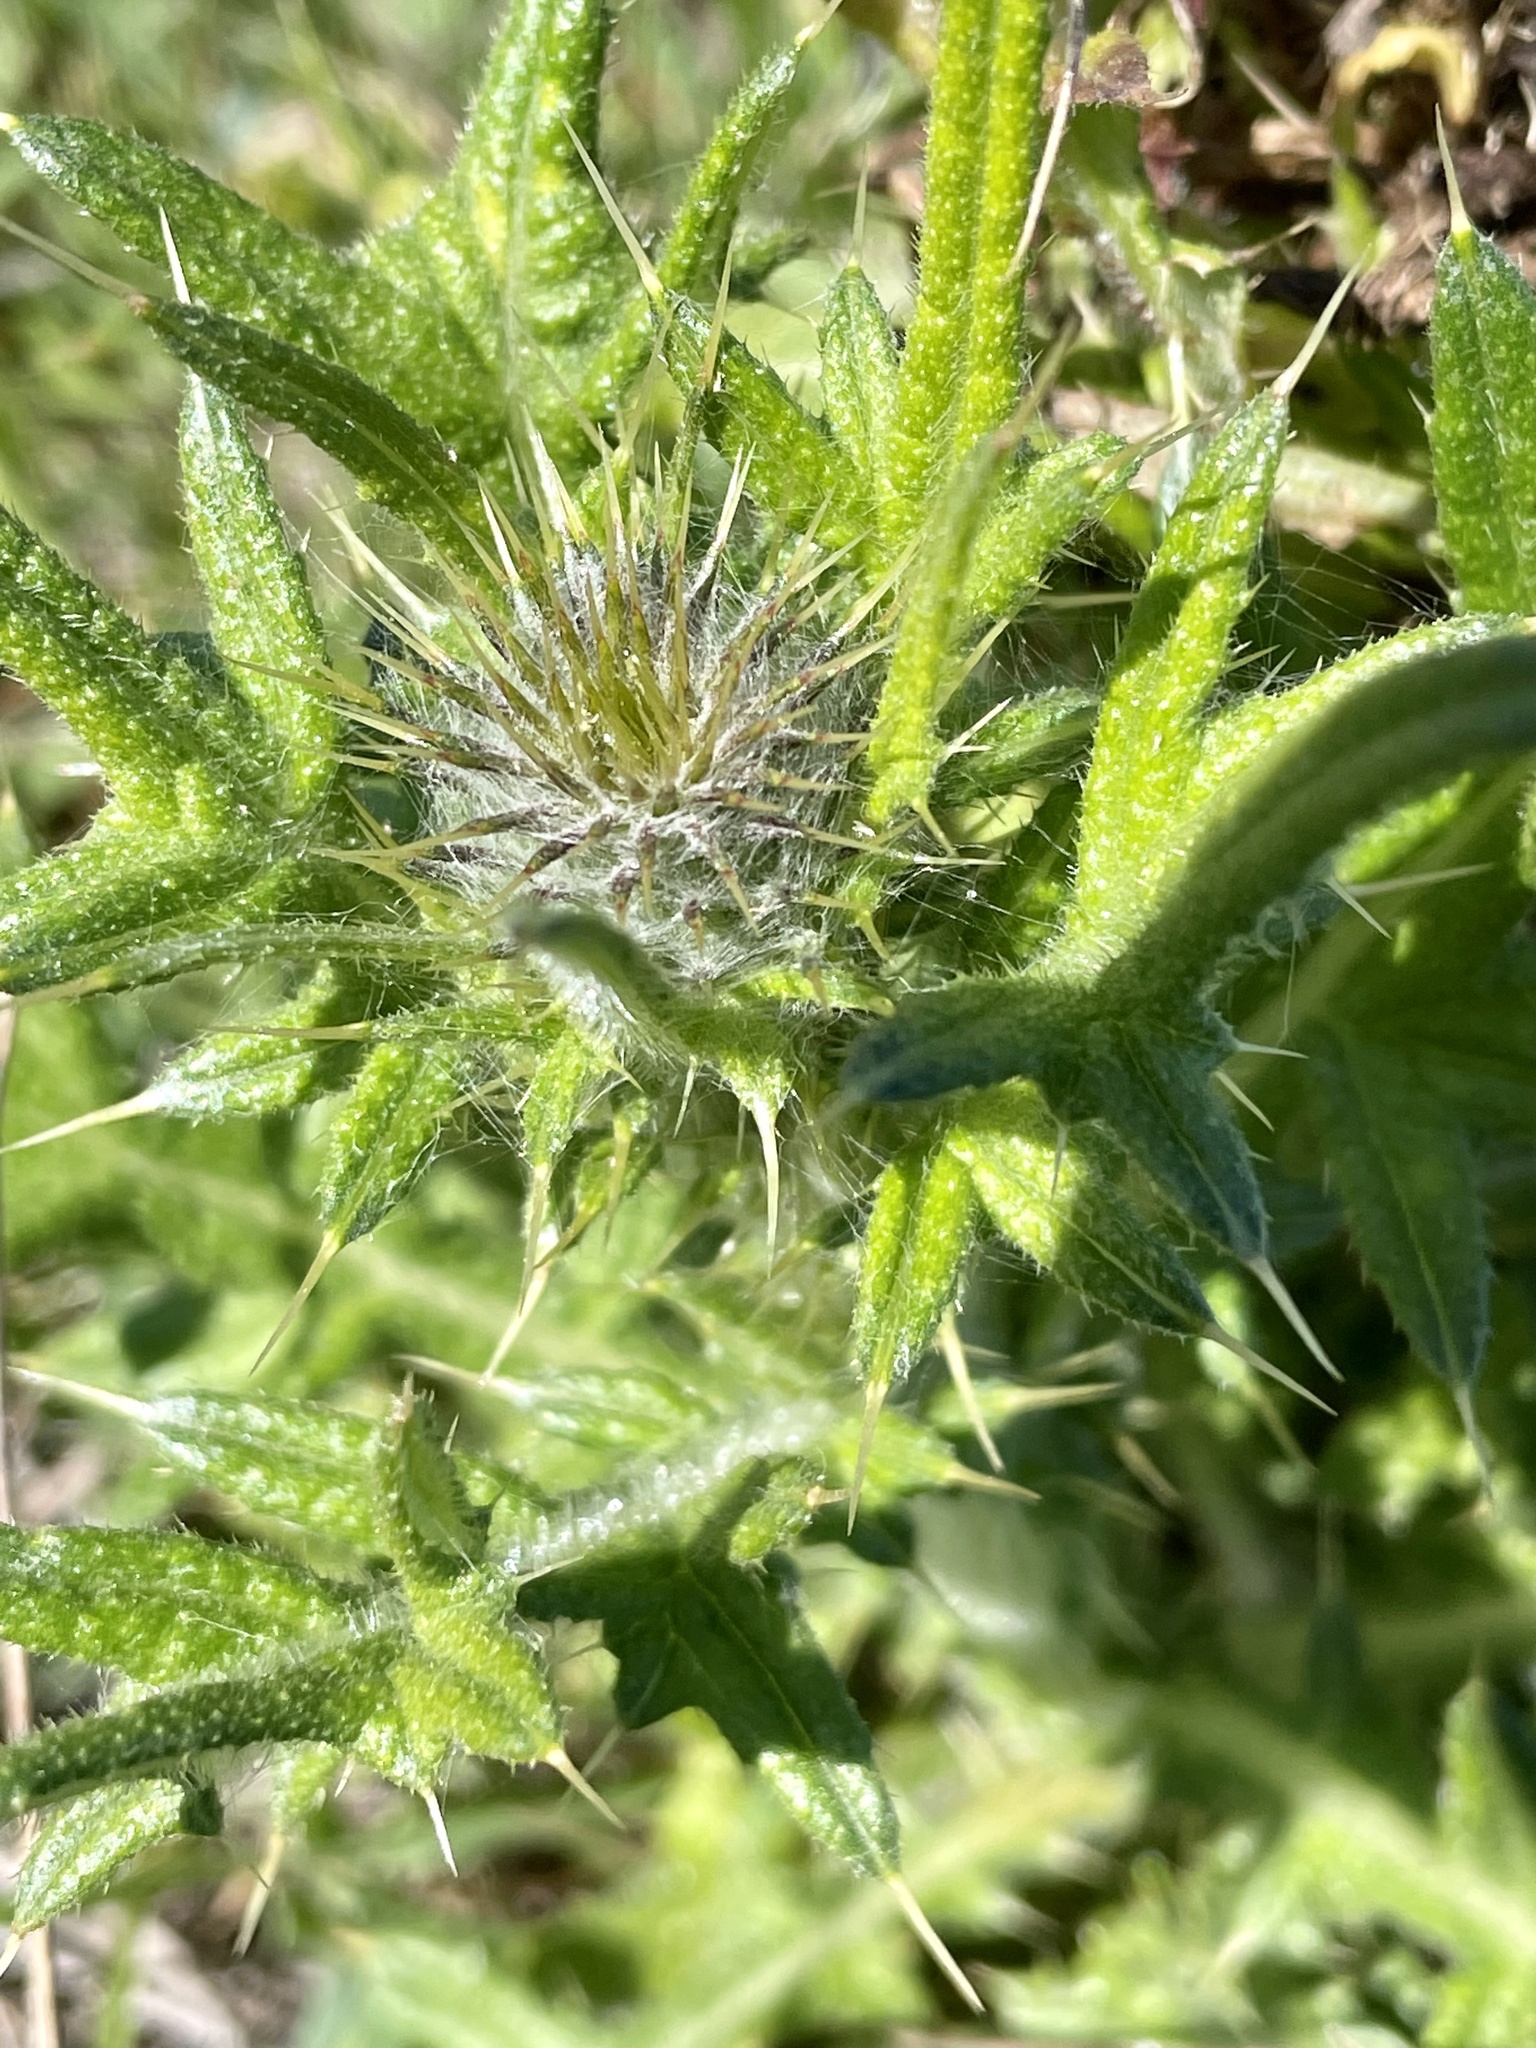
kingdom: Plantae
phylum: Tracheophyta
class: Magnoliopsida
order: Asterales
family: Asteraceae
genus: Cirsium
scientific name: Cirsium vulgare
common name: Bull thistle
